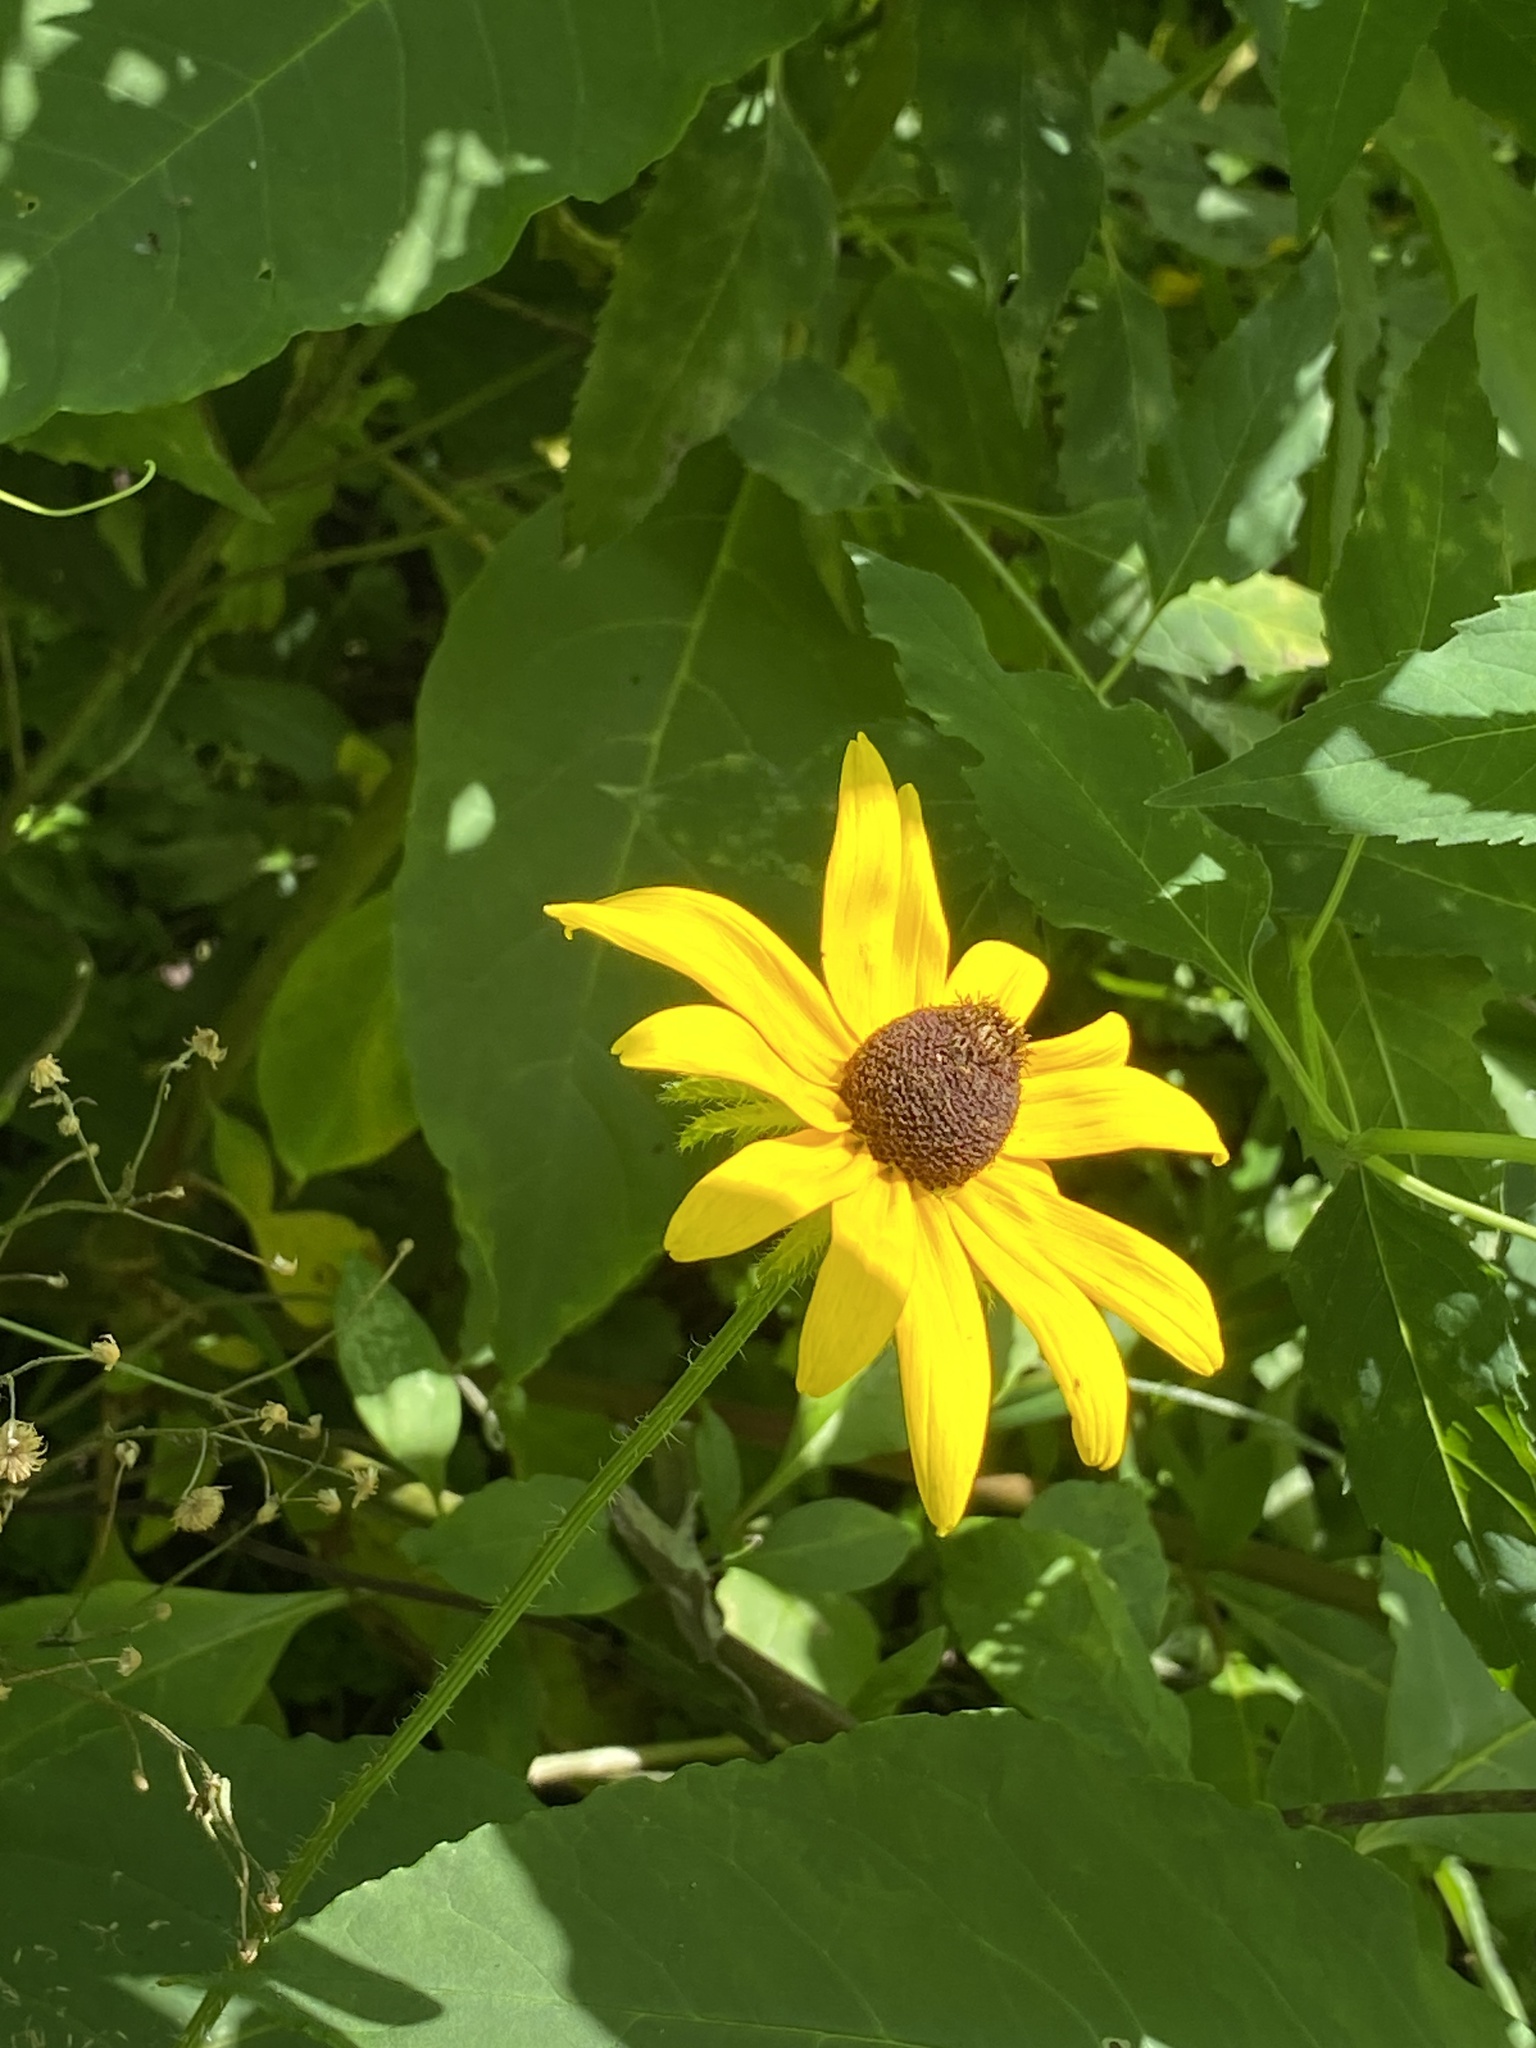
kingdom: Plantae
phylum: Tracheophyta
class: Magnoliopsida
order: Asterales
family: Asteraceae
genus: Rudbeckia
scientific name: Rudbeckia hirta
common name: Black-eyed-susan
